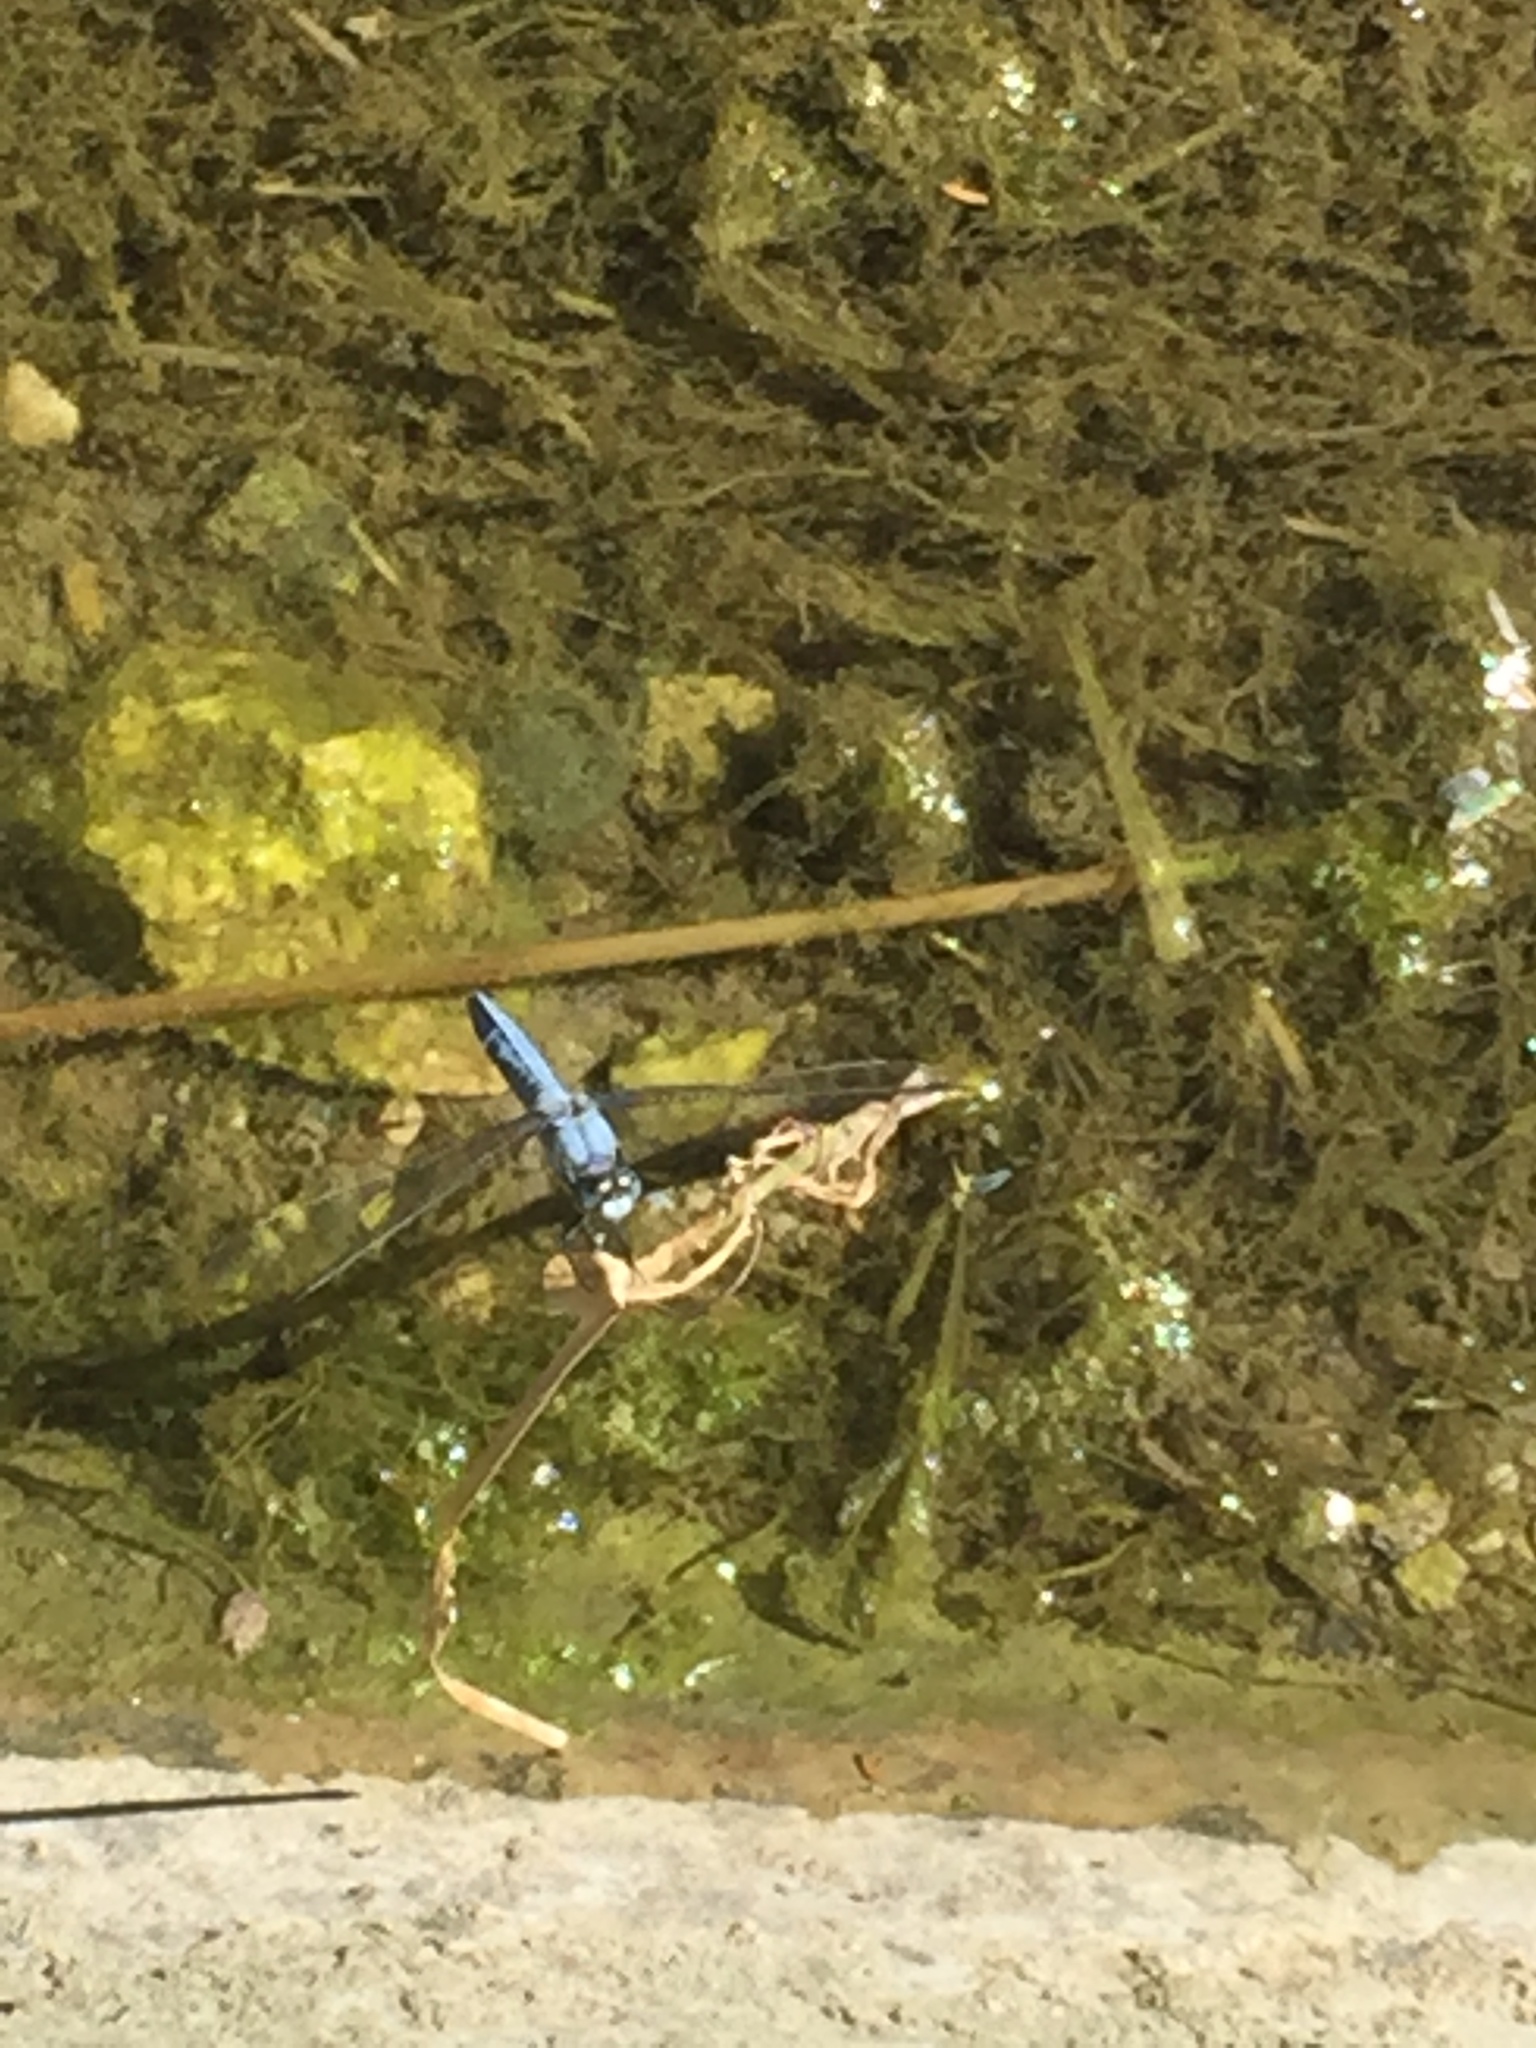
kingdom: Animalia
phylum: Arthropoda
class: Insecta
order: Odonata
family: Libellulidae
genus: Orthetrum
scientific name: Orthetrum brunneum
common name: Southern skimmer
